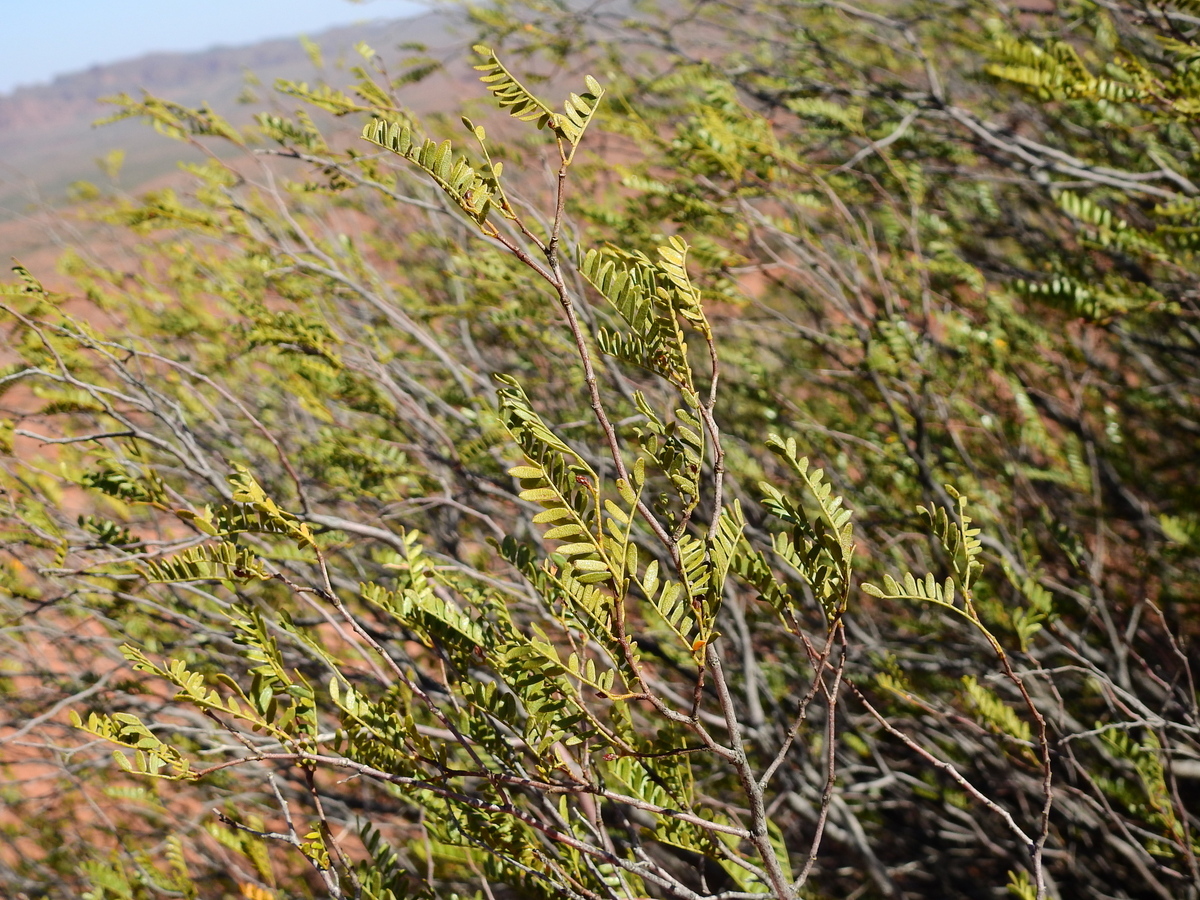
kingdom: Plantae
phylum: Tracheophyta
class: Magnoliopsida
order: Fabales
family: Fabaceae
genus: Zuccagnia
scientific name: Zuccagnia punctata
